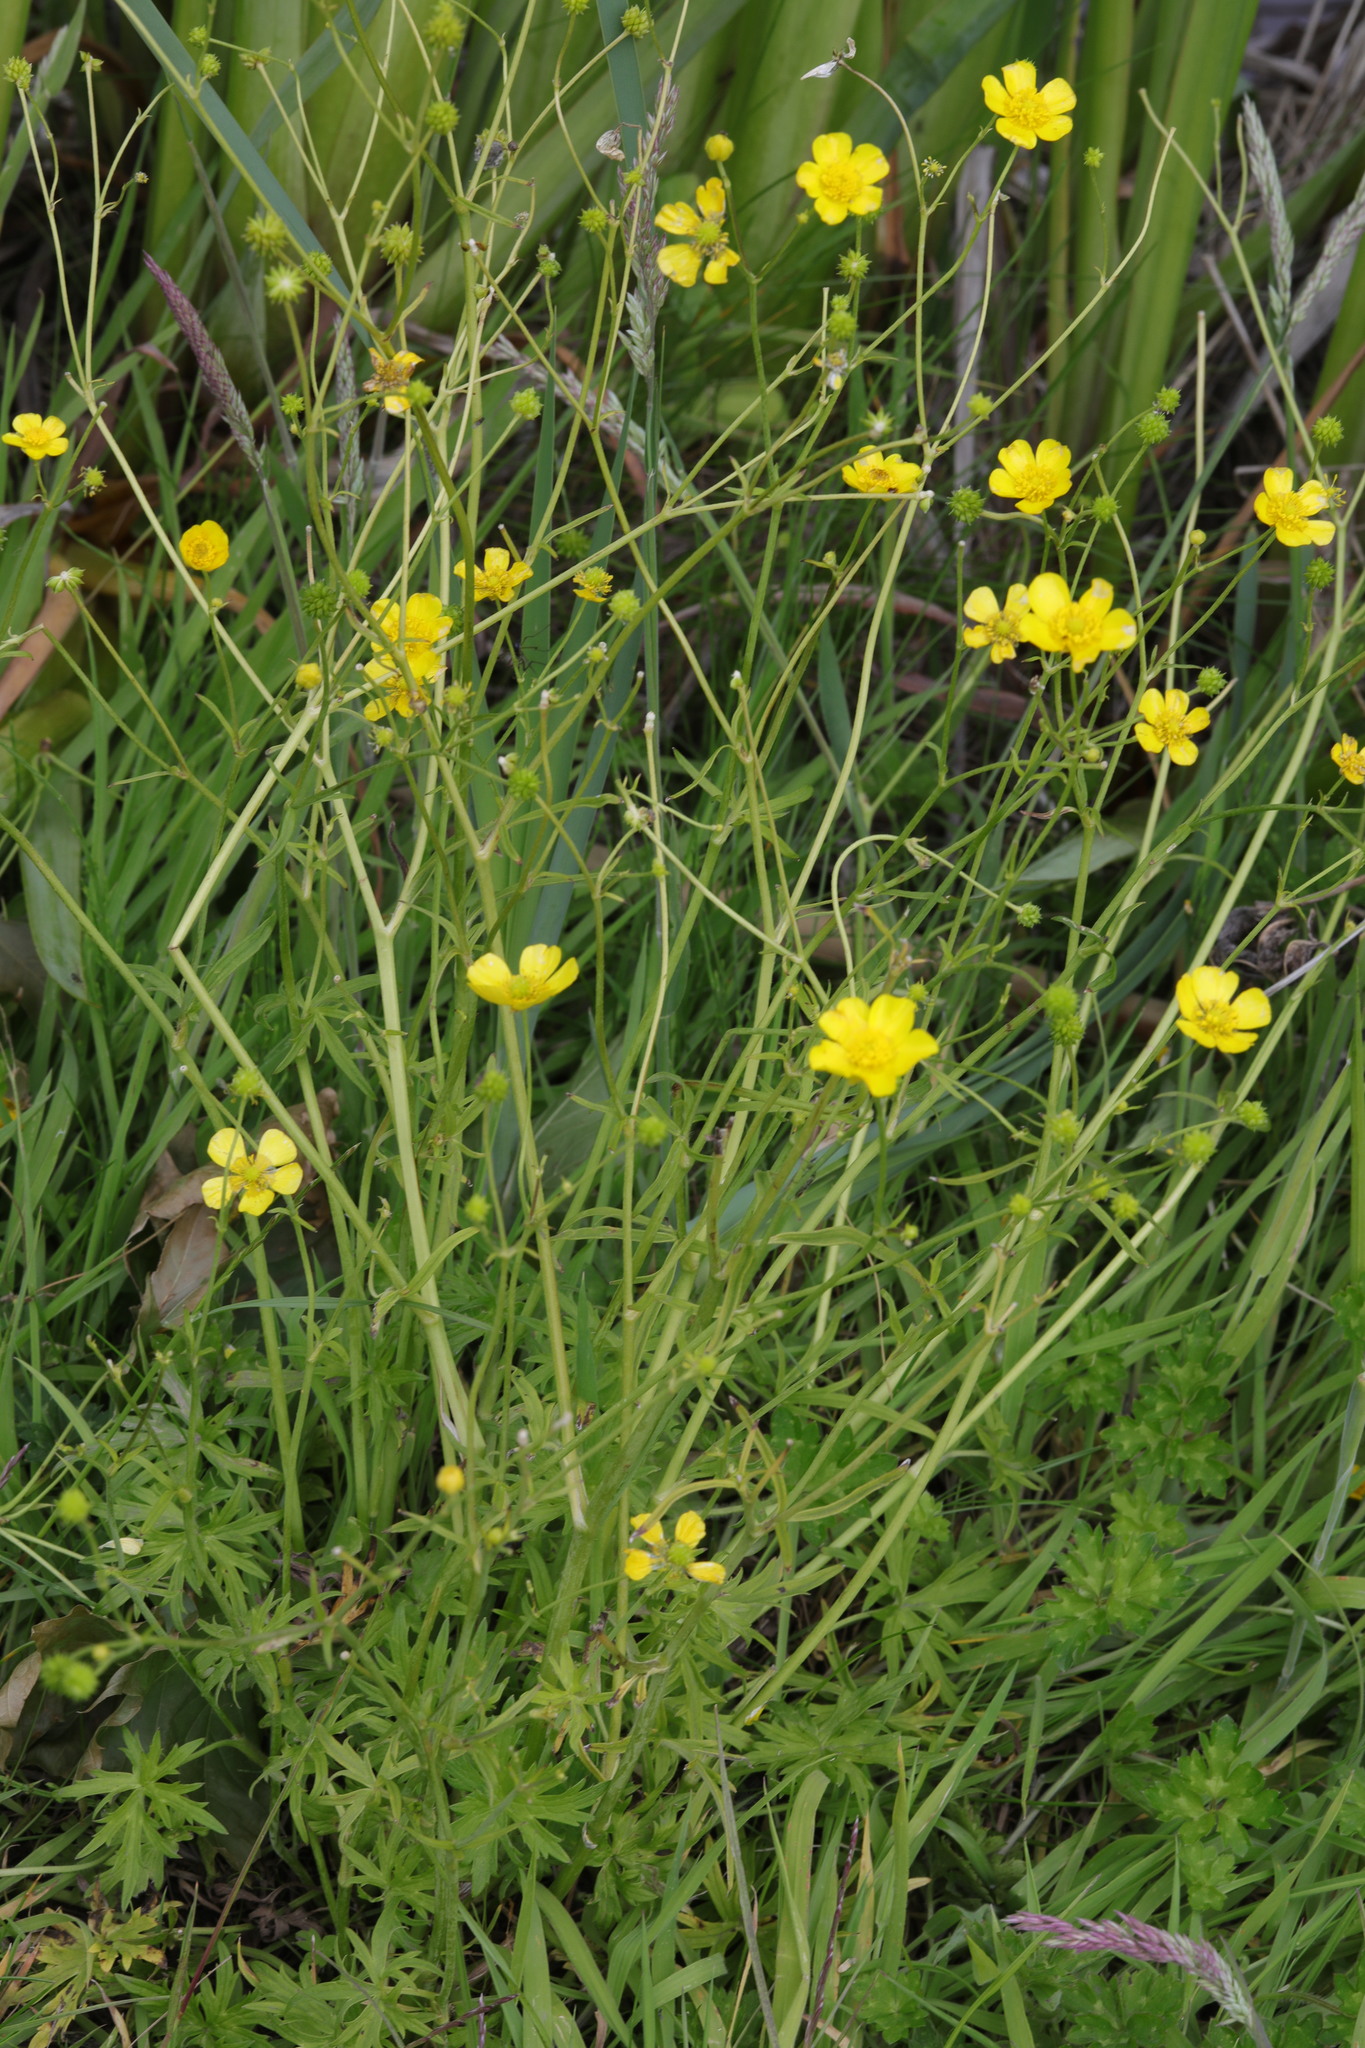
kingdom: Plantae
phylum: Tracheophyta
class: Magnoliopsida
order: Ranunculales
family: Ranunculaceae
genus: Ranunculus
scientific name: Ranunculus acris
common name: Meadow buttercup
